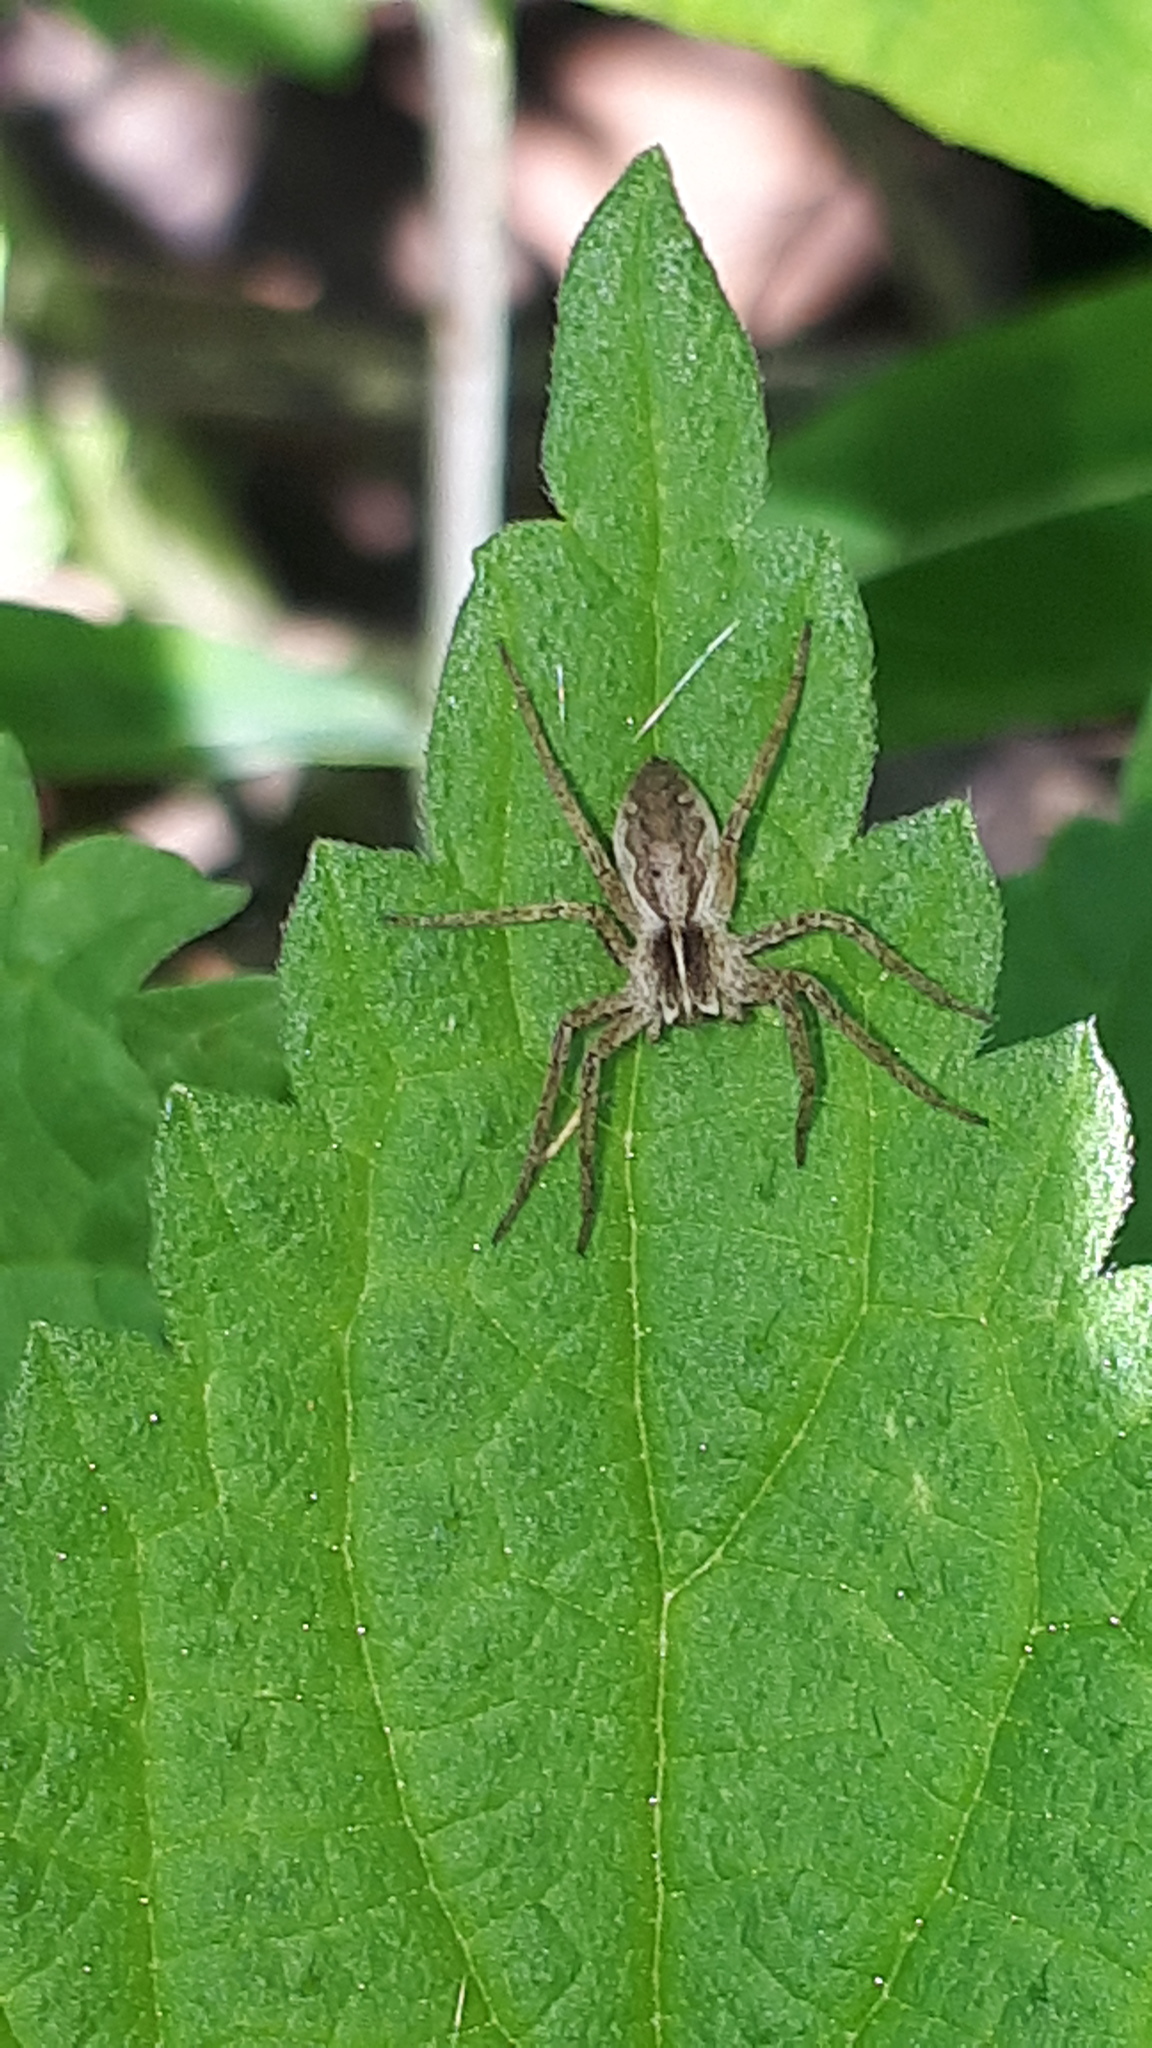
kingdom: Animalia
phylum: Arthropoda
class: Arachnida
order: Araneae
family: Pisauridae
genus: Pisaura
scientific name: Pisaura mirabilis
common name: Tent spider
